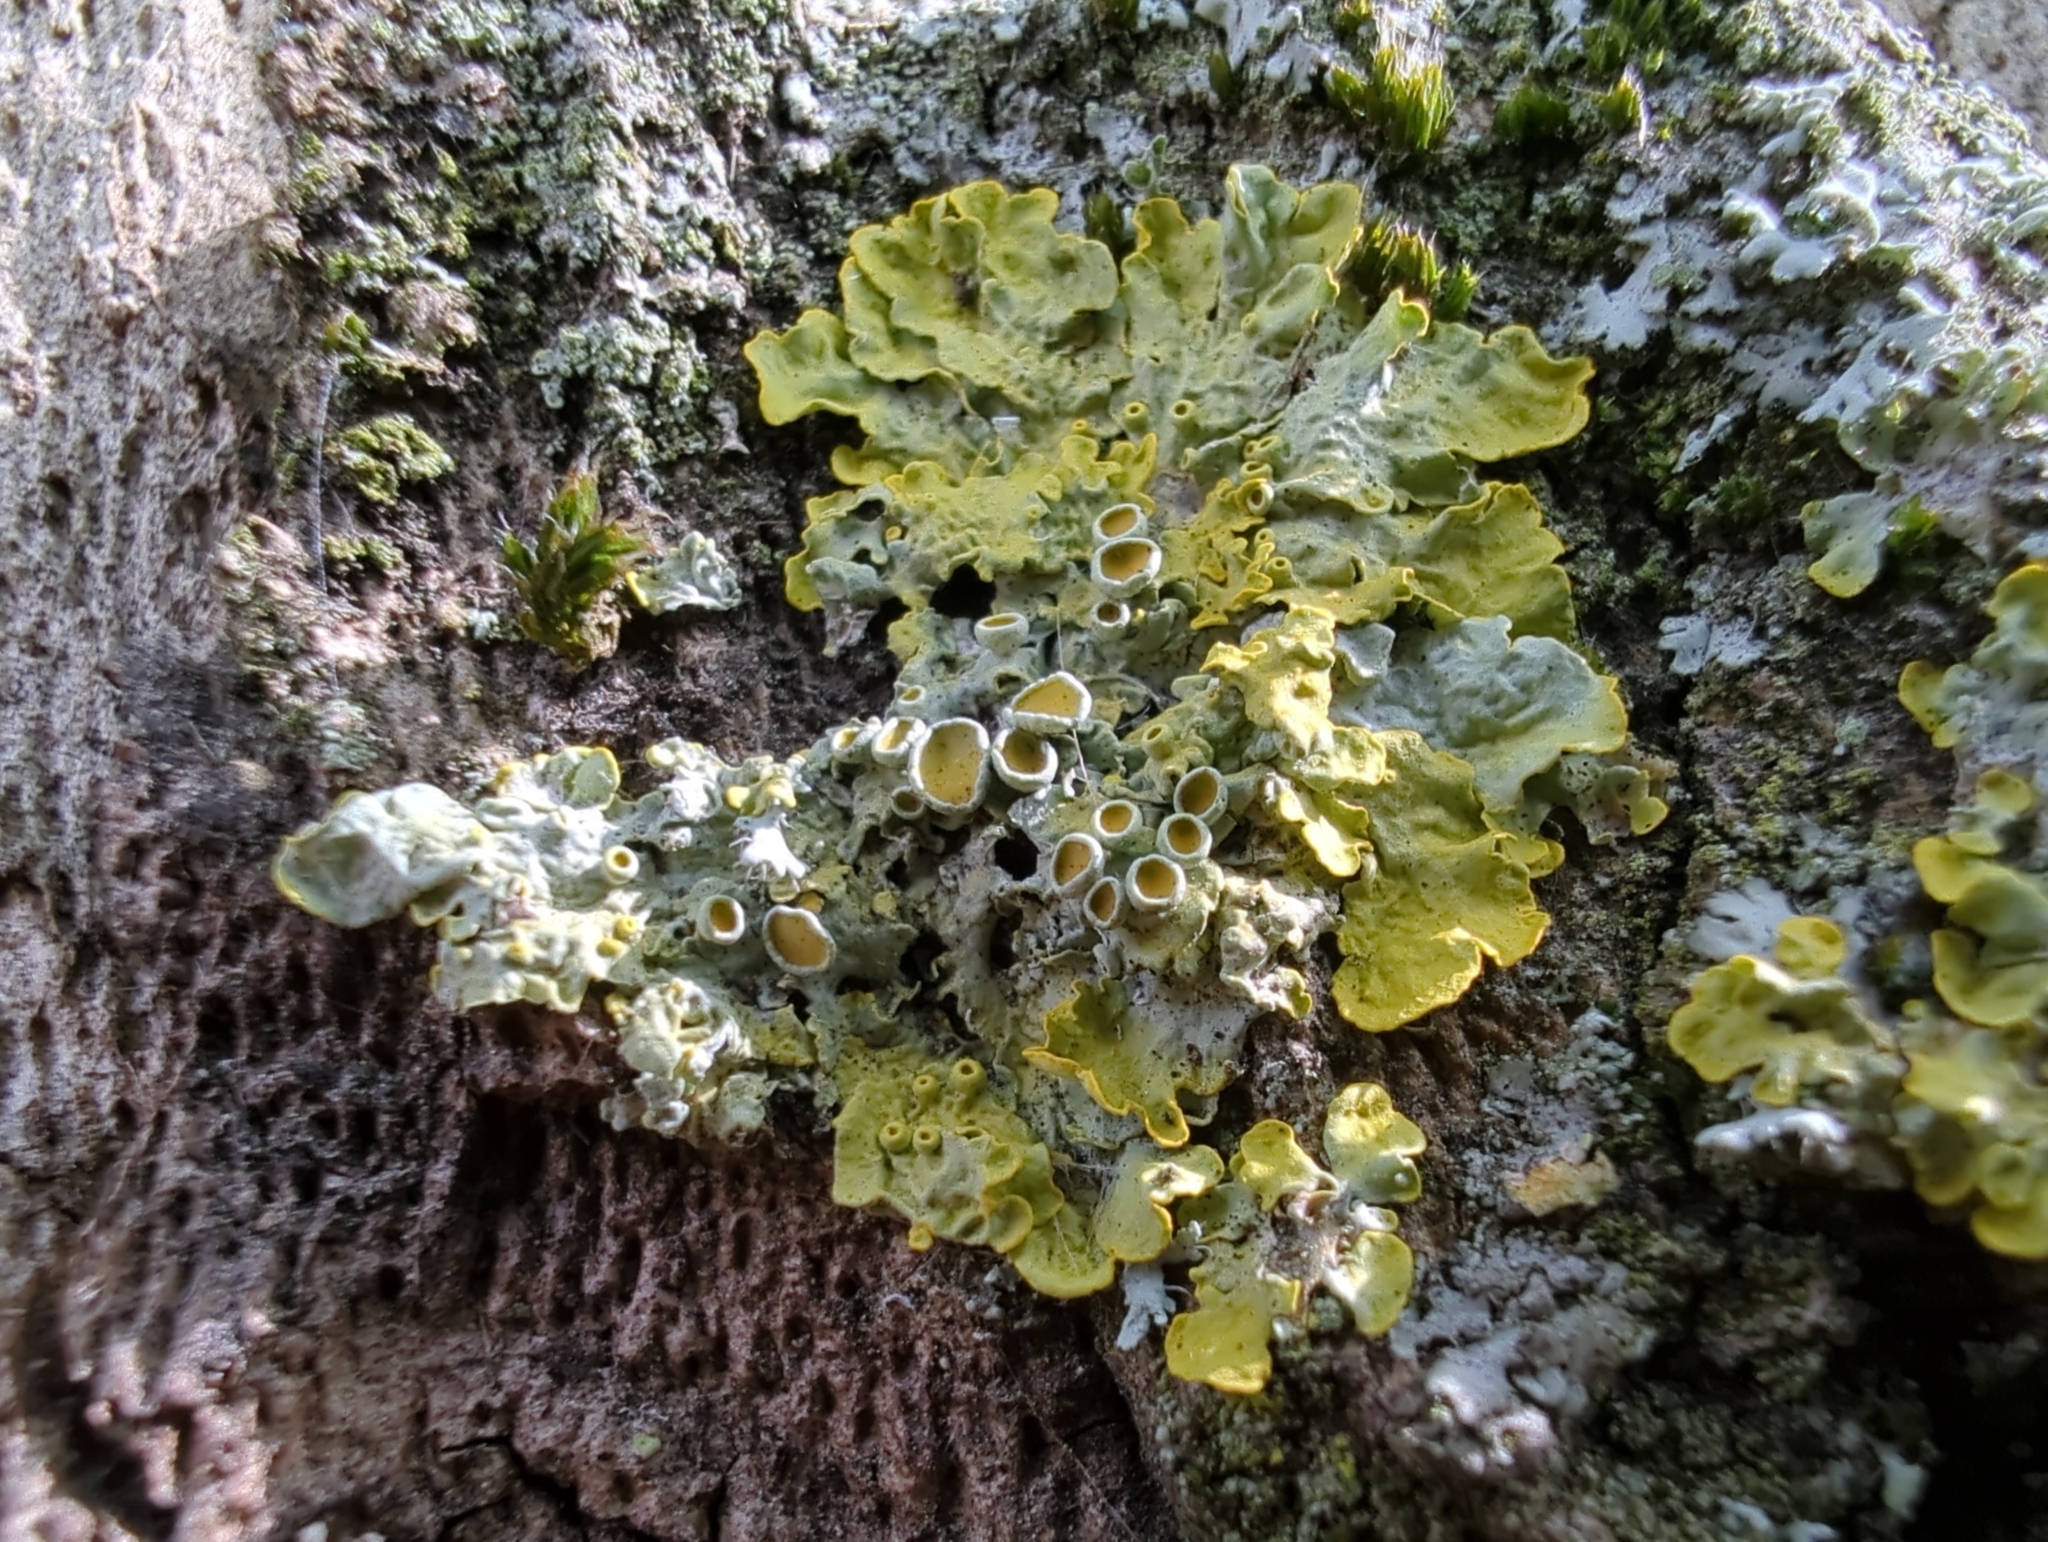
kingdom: Fungi
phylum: Ascomycota
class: Lecanoromycetes
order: Teloschistales
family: Teloschistaceae
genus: Xanthoria
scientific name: Xanthoria parietina
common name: Common orange lichen
